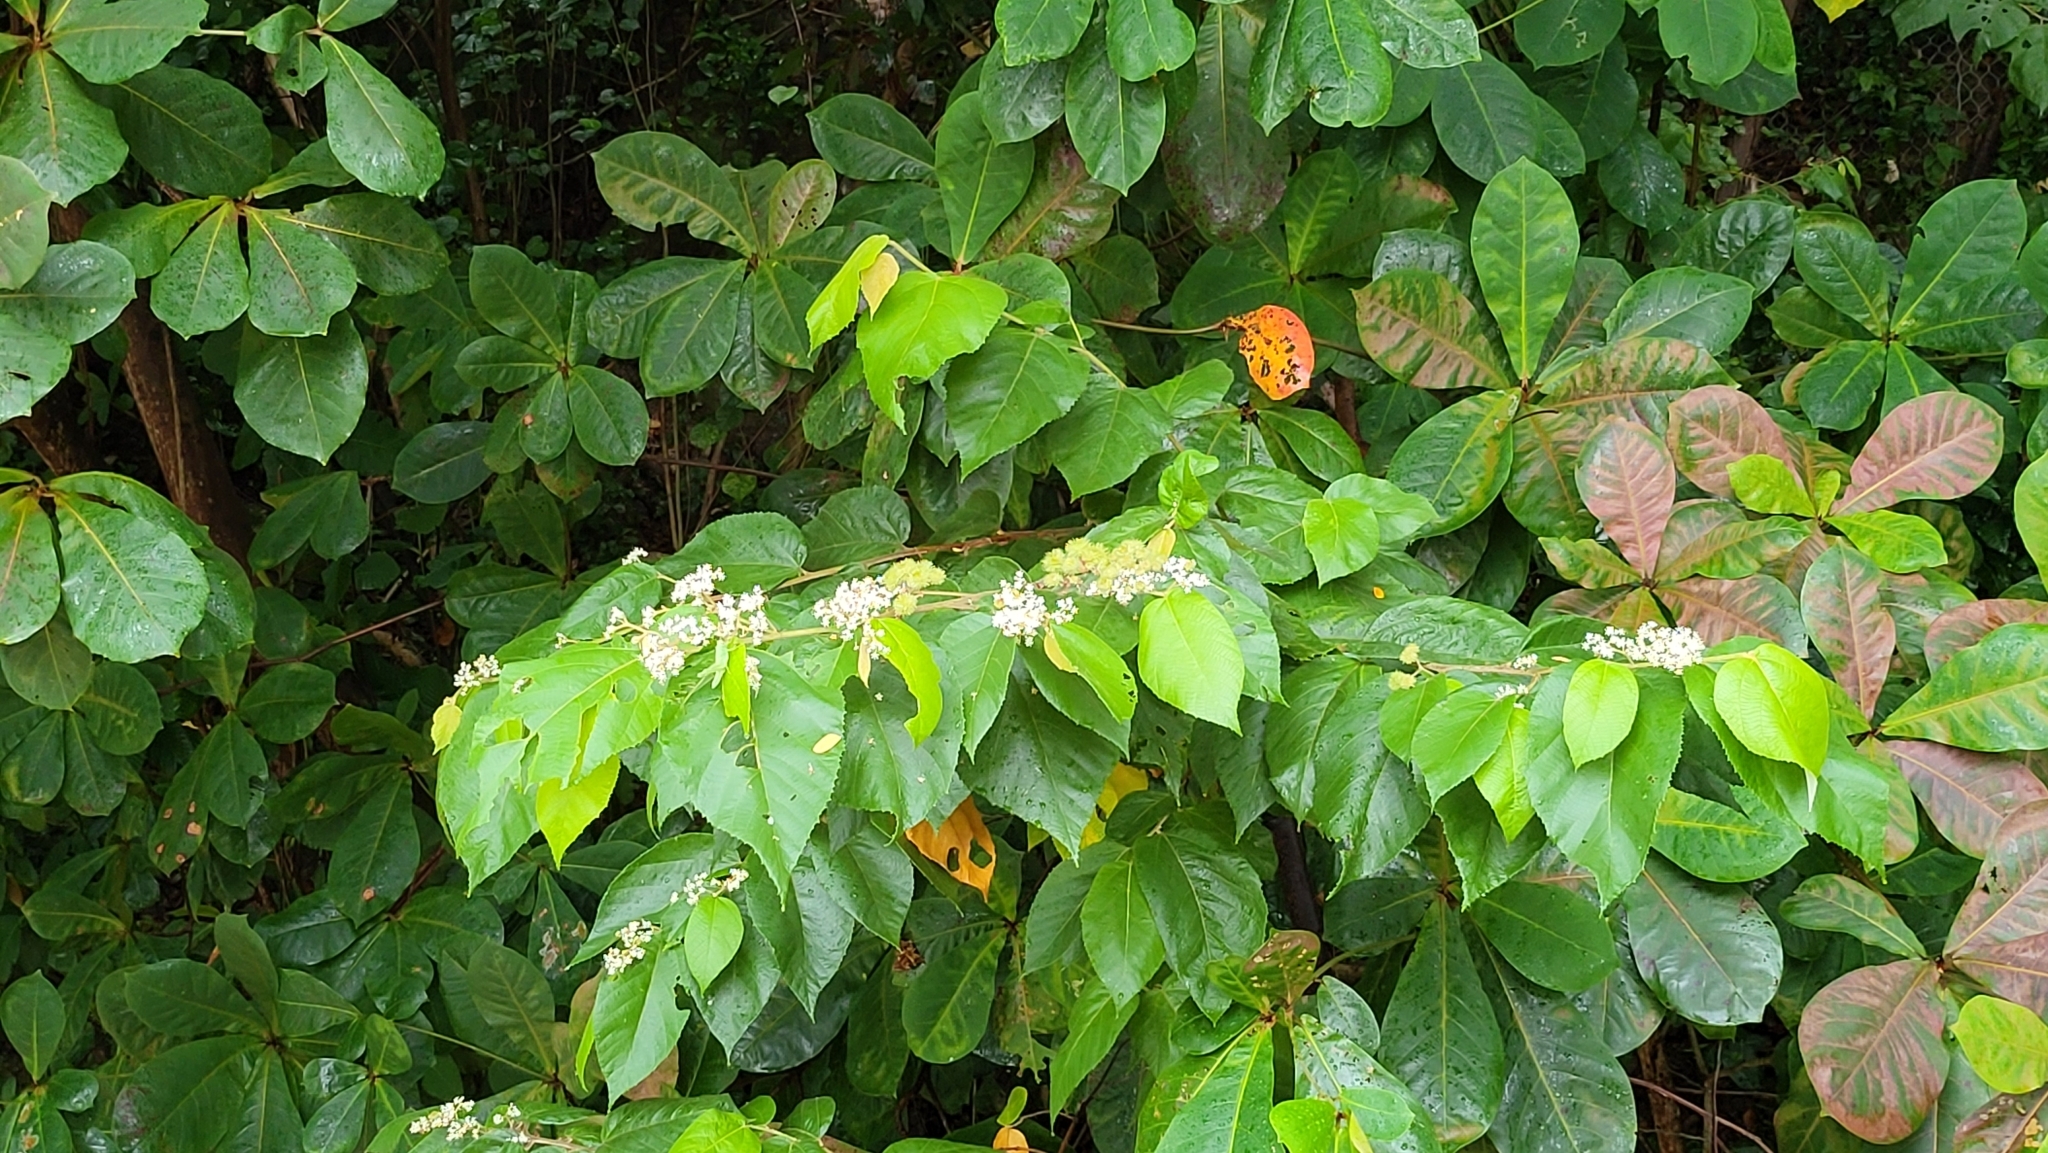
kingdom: Plantae
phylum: Tracheophyta
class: Magnoliopsida
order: Malvales
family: Malvaceae
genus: Commersonia
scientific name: Commersonia bartramia
